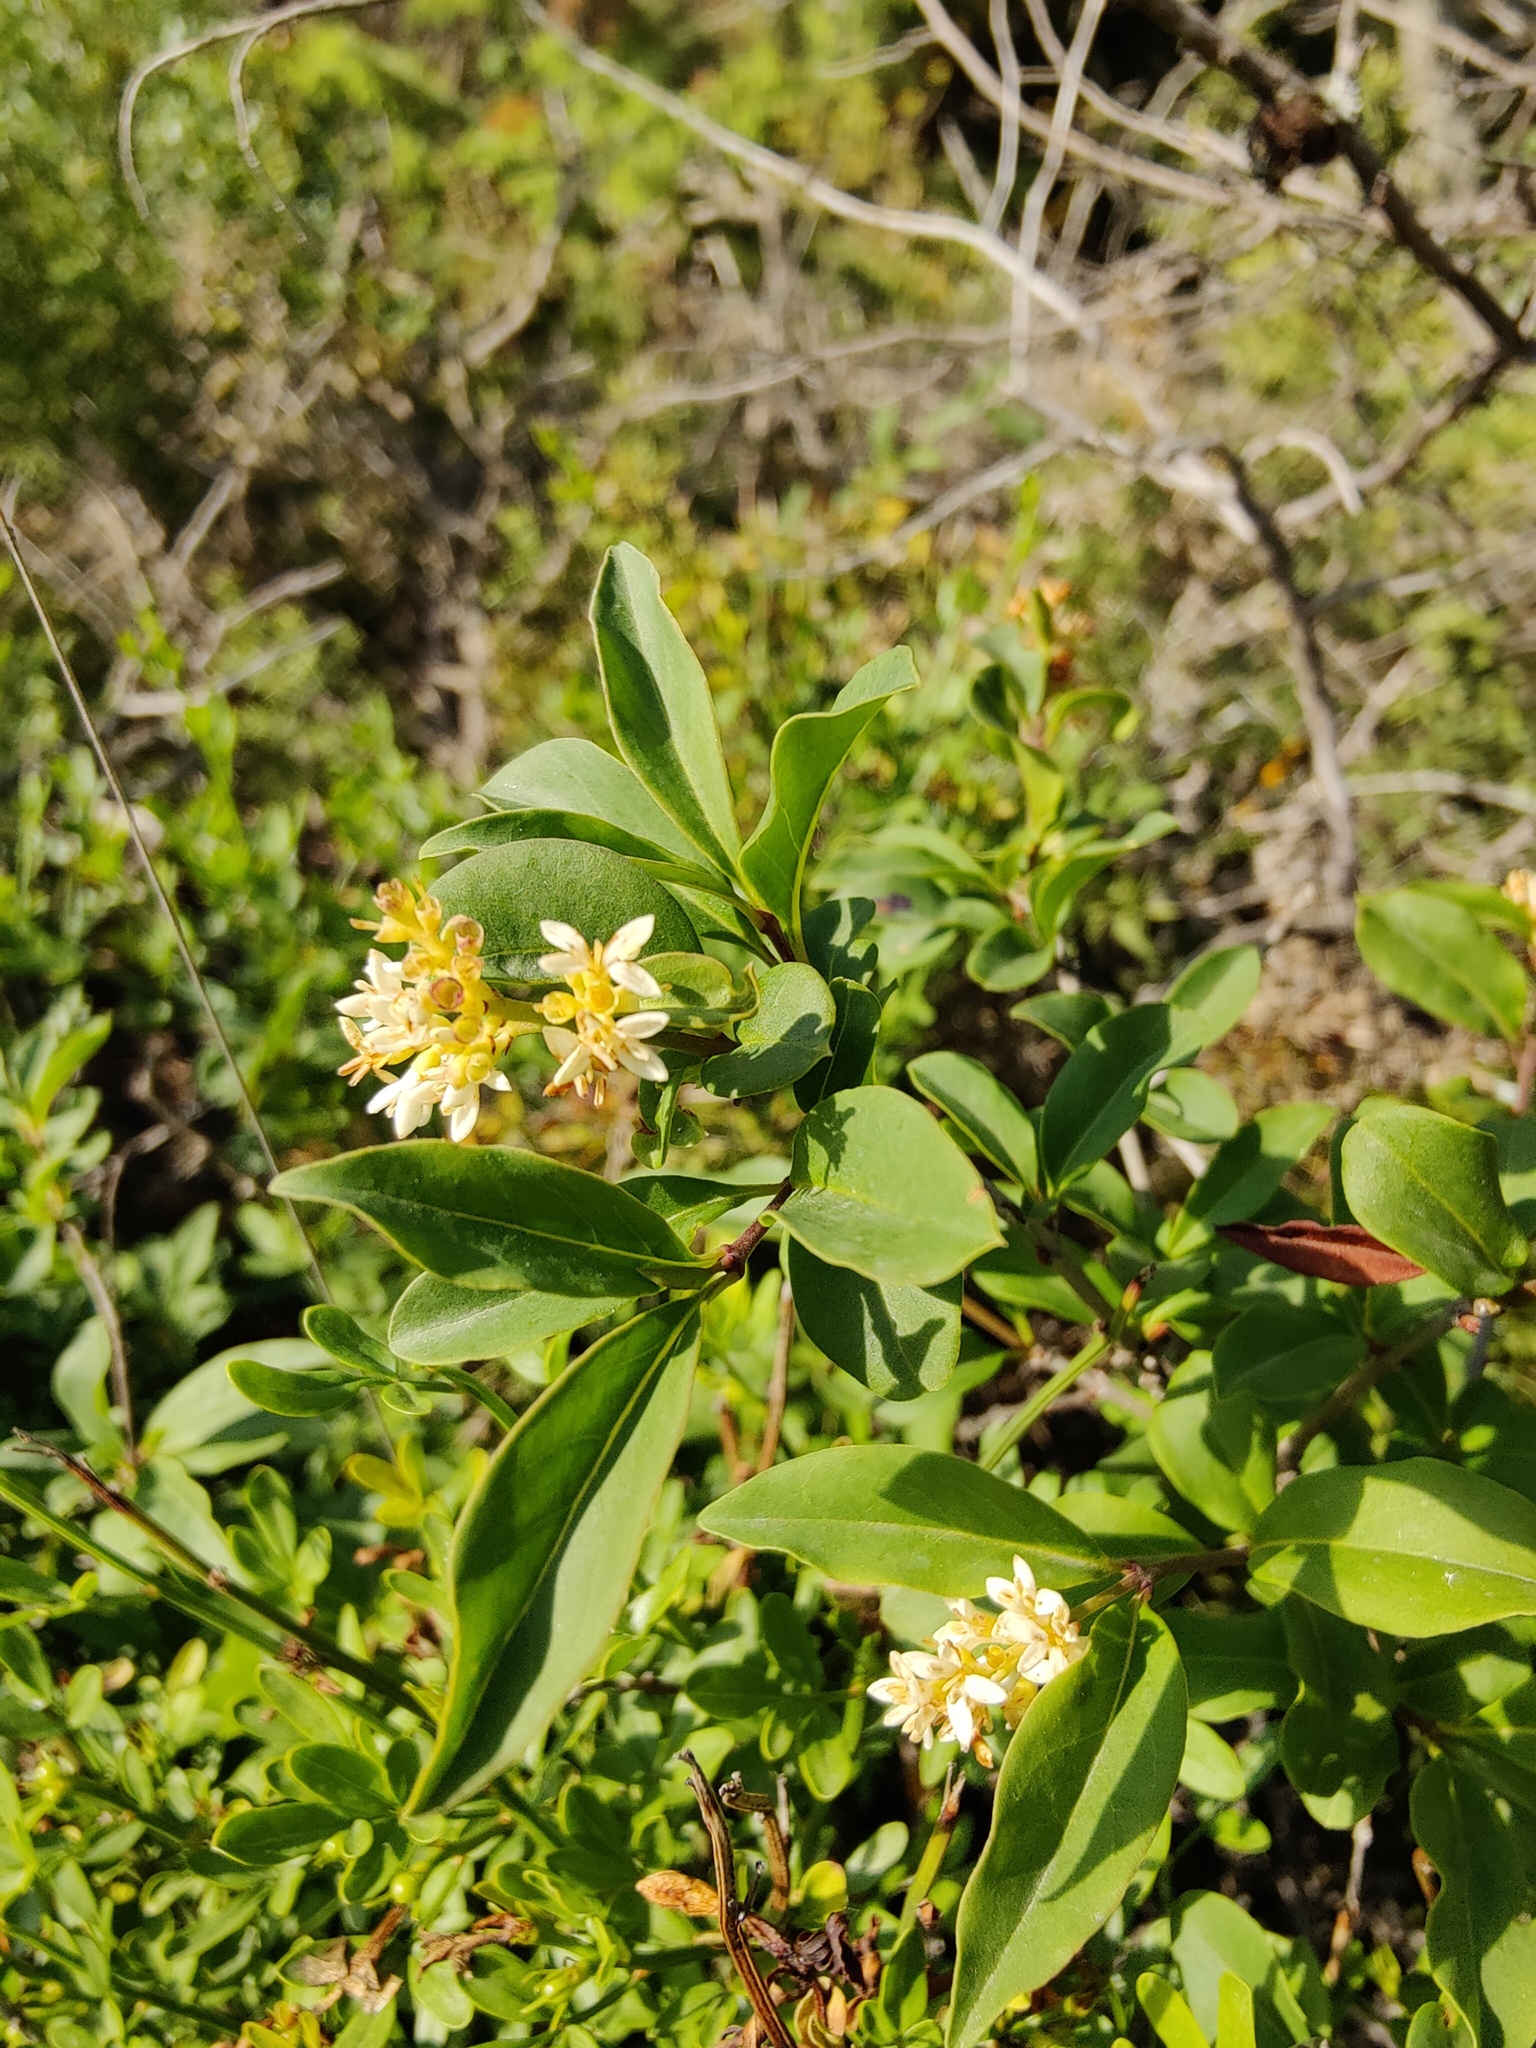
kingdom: Plantae
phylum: Tracheophyta
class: Magnoliopsida
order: Lamiales
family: Oleaceae
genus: Ligustrum
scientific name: Ligustrum vulgare
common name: Wild privet
